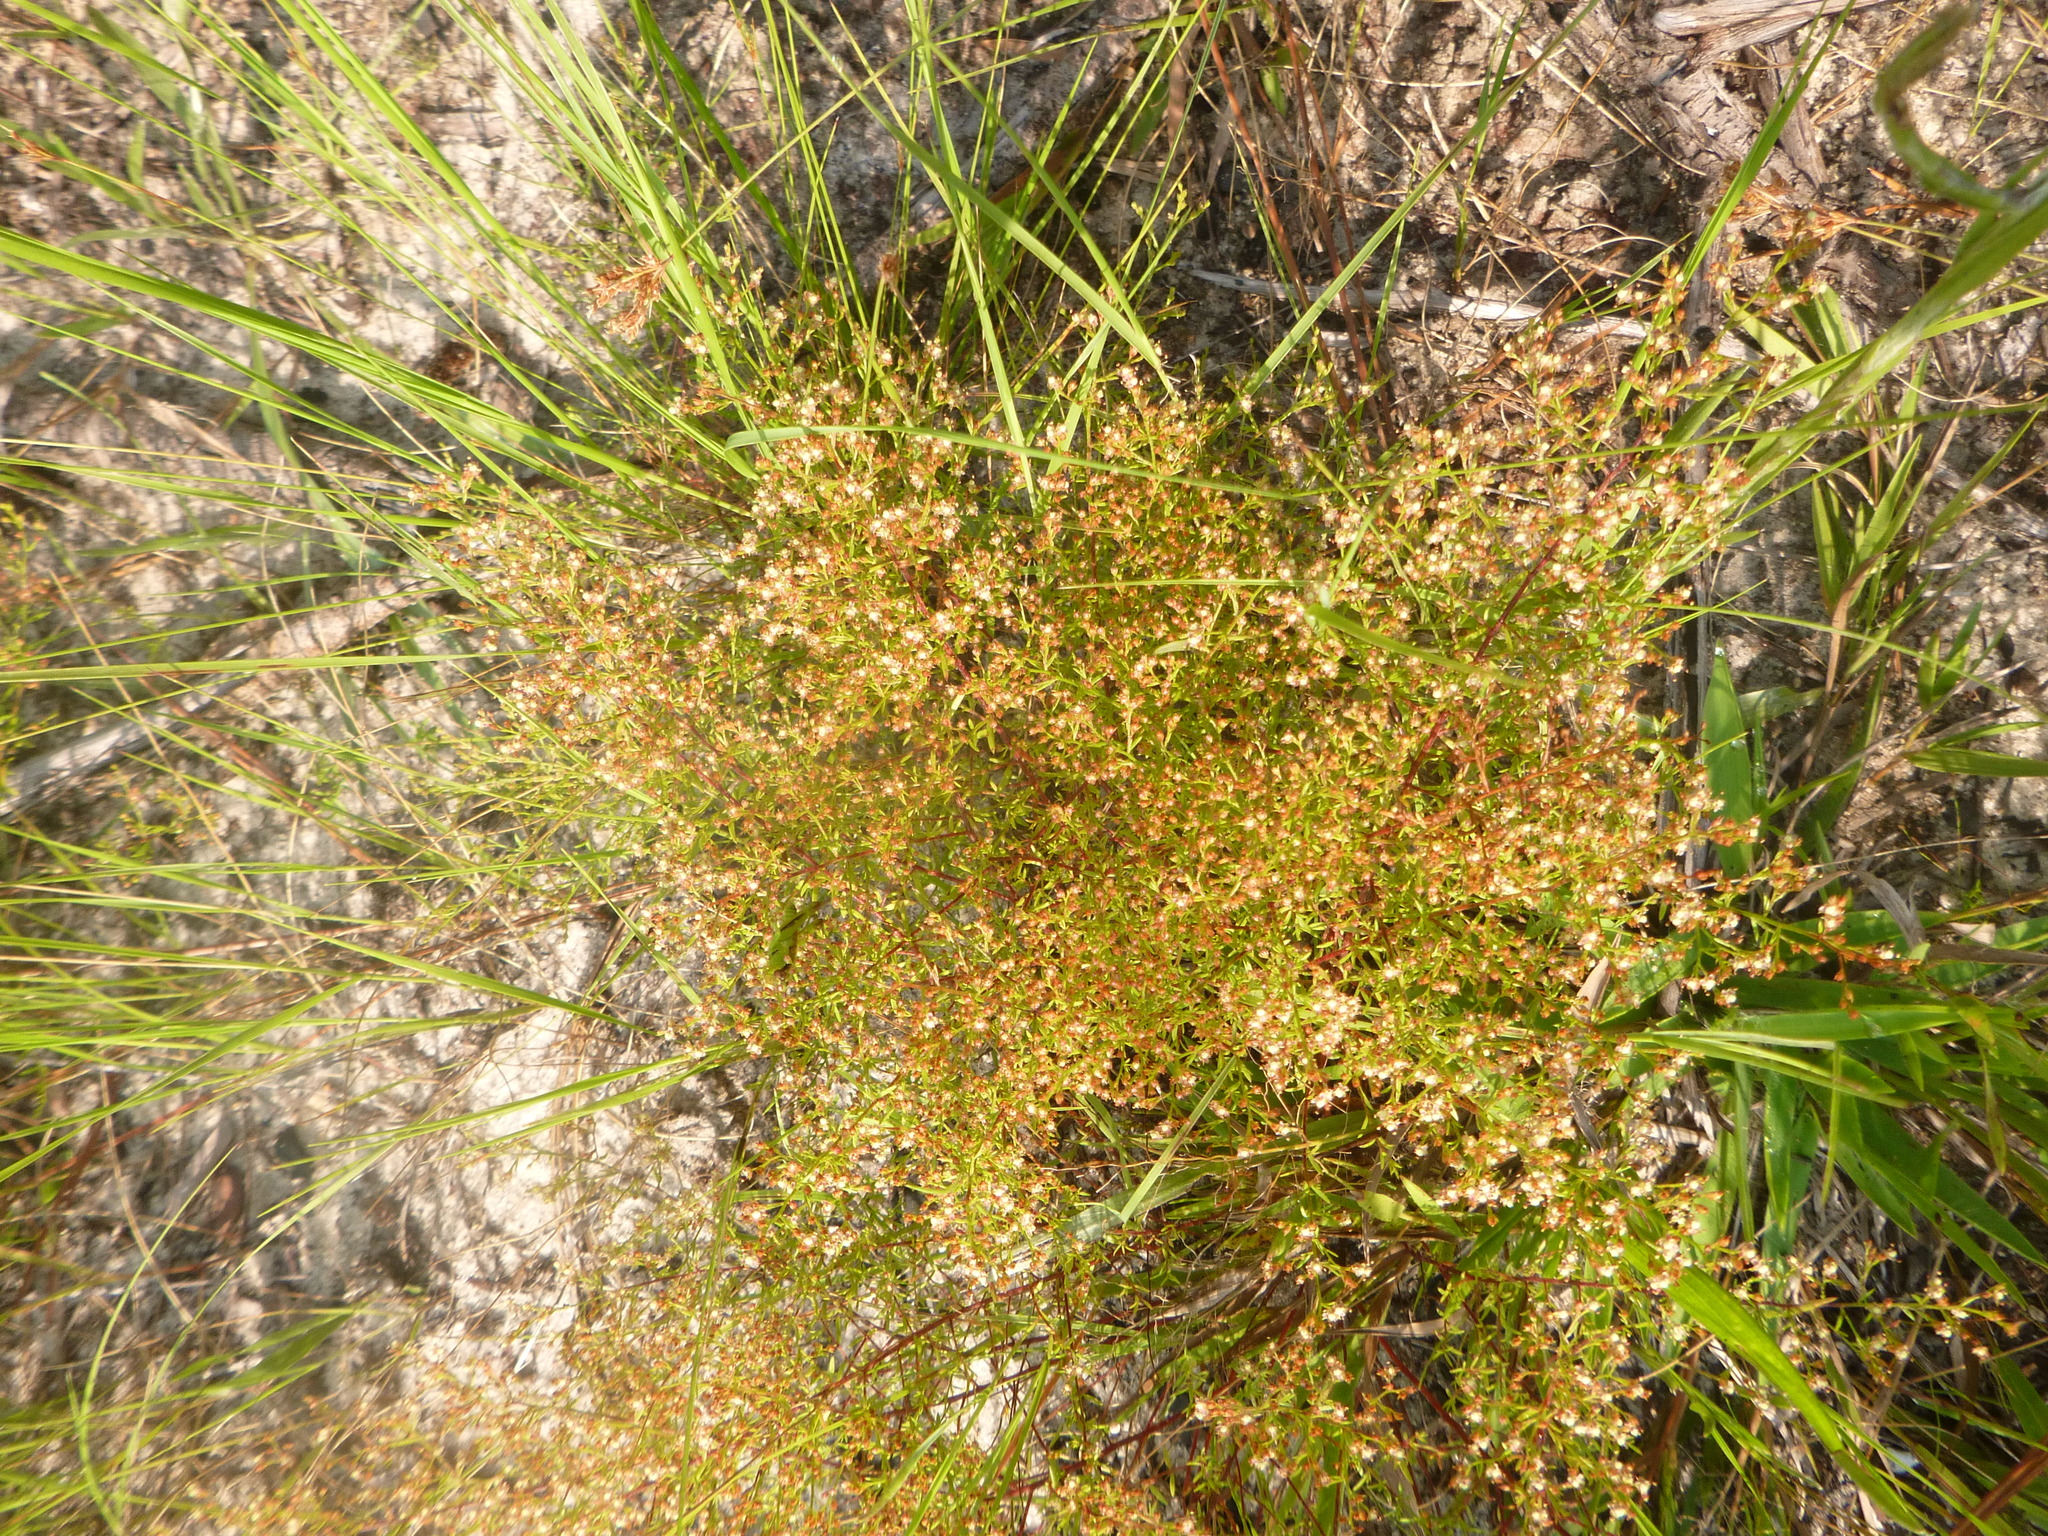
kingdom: Plantae
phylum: Tracheophyta
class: Magnoliopsida
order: Malvales
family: Cistaceae
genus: Lechea
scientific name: Lechea tenuifolia
